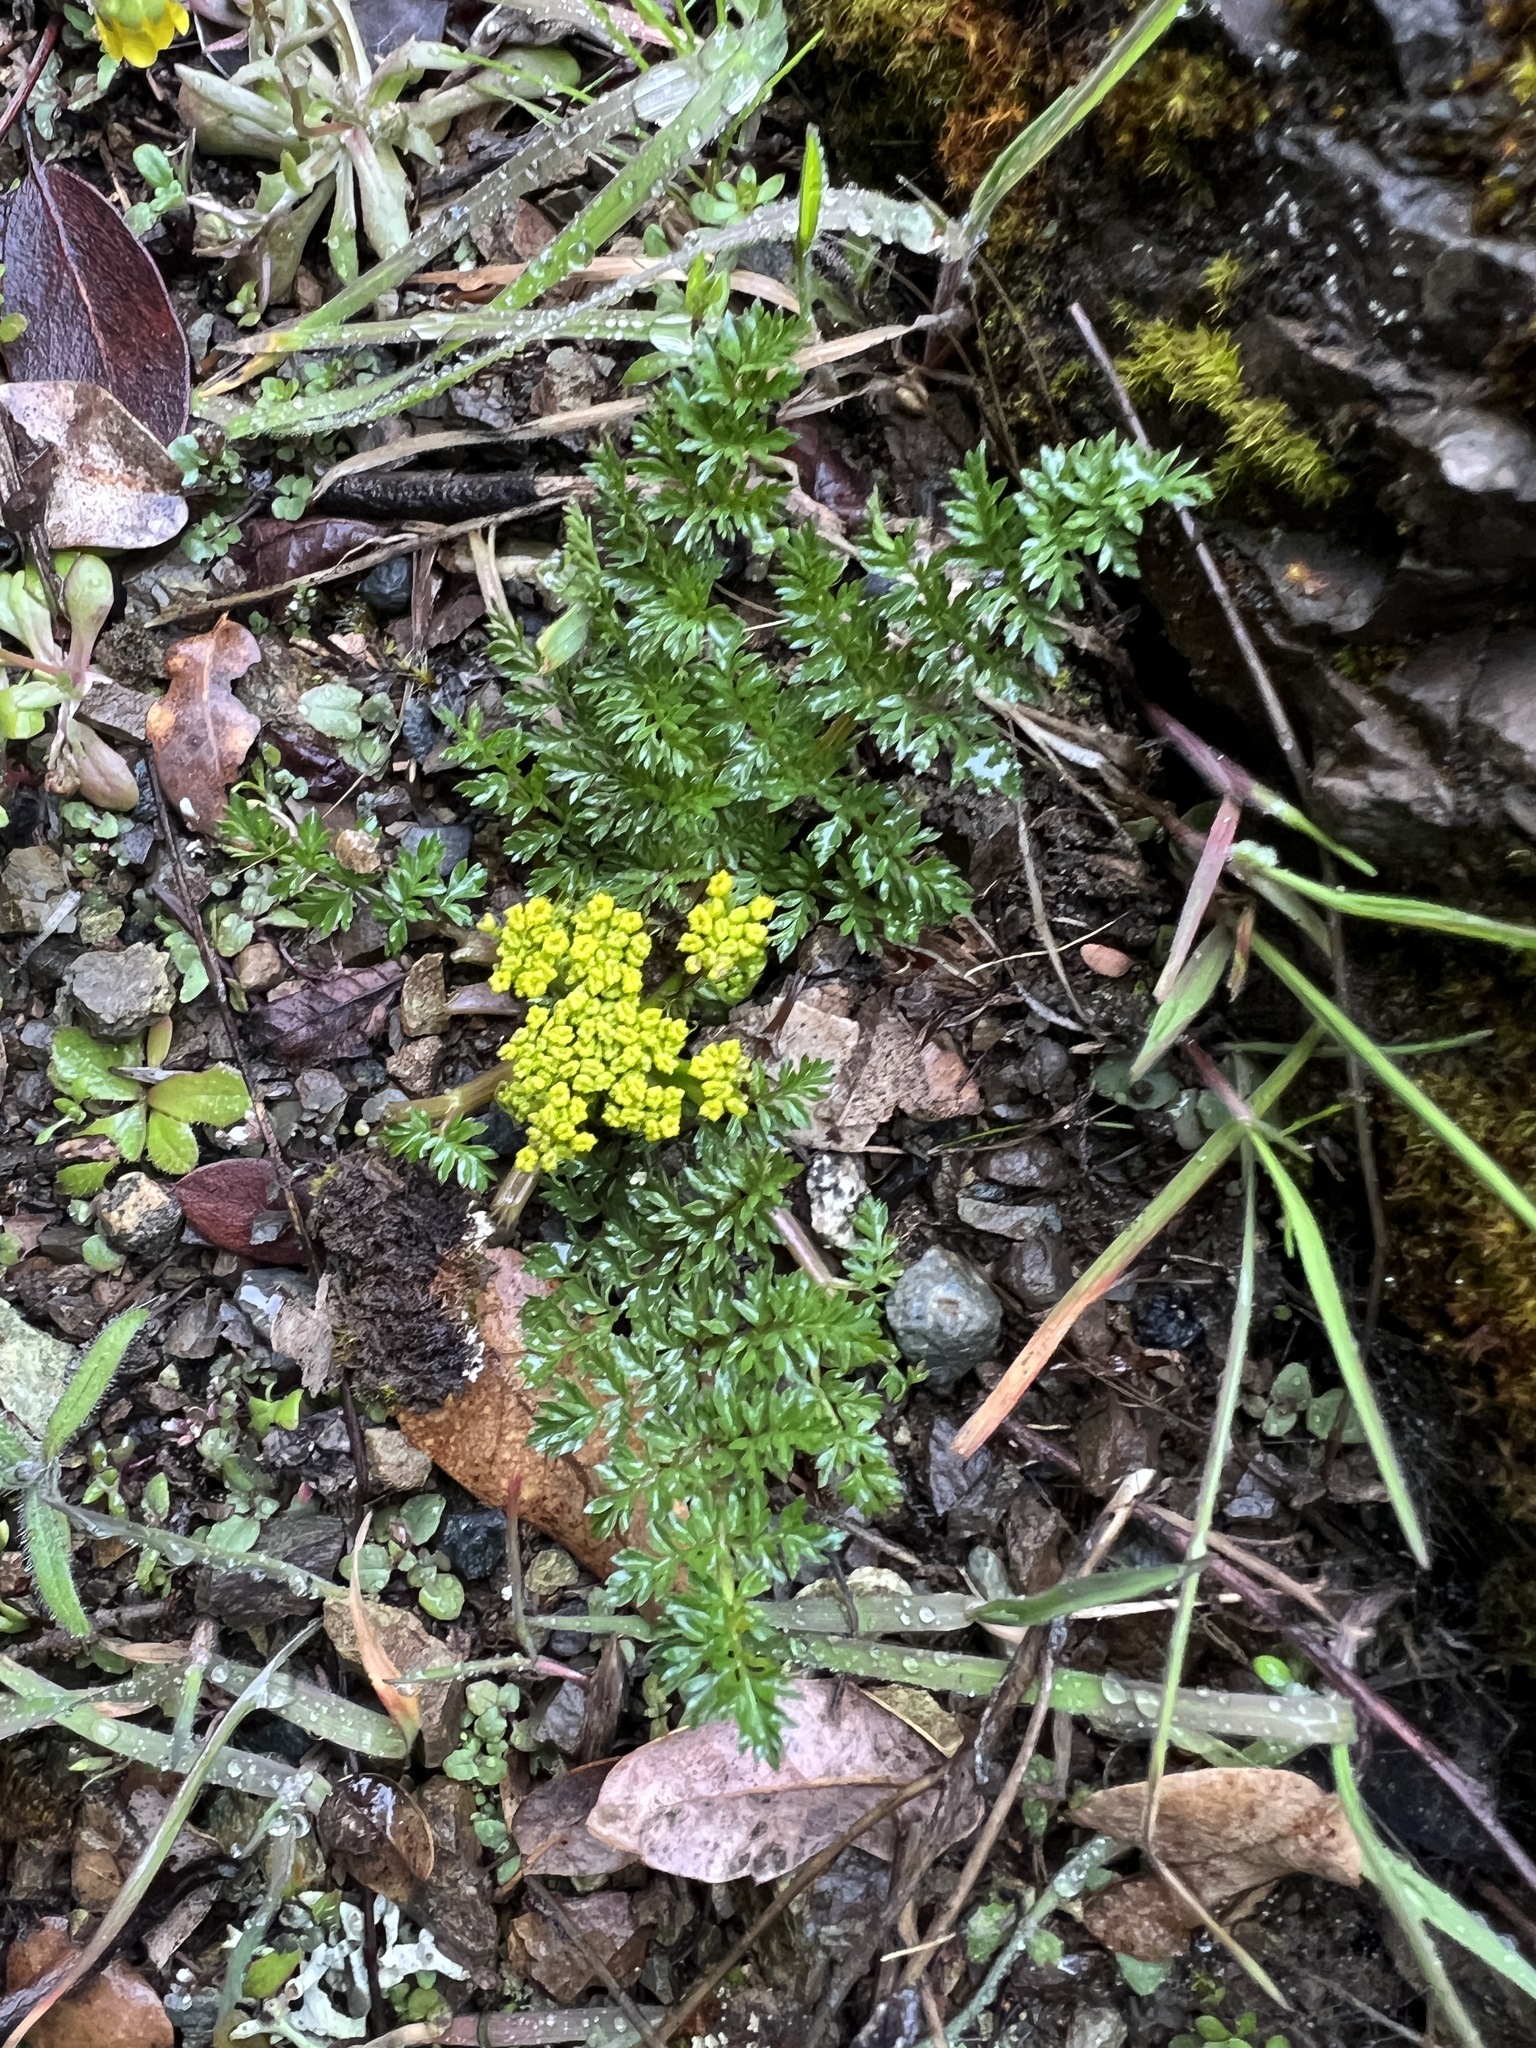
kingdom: Plantae
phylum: Tracheophyta
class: Magnoliopsida
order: Apiales
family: Apiaceae
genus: Lomatium
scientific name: Lomatium hallii
